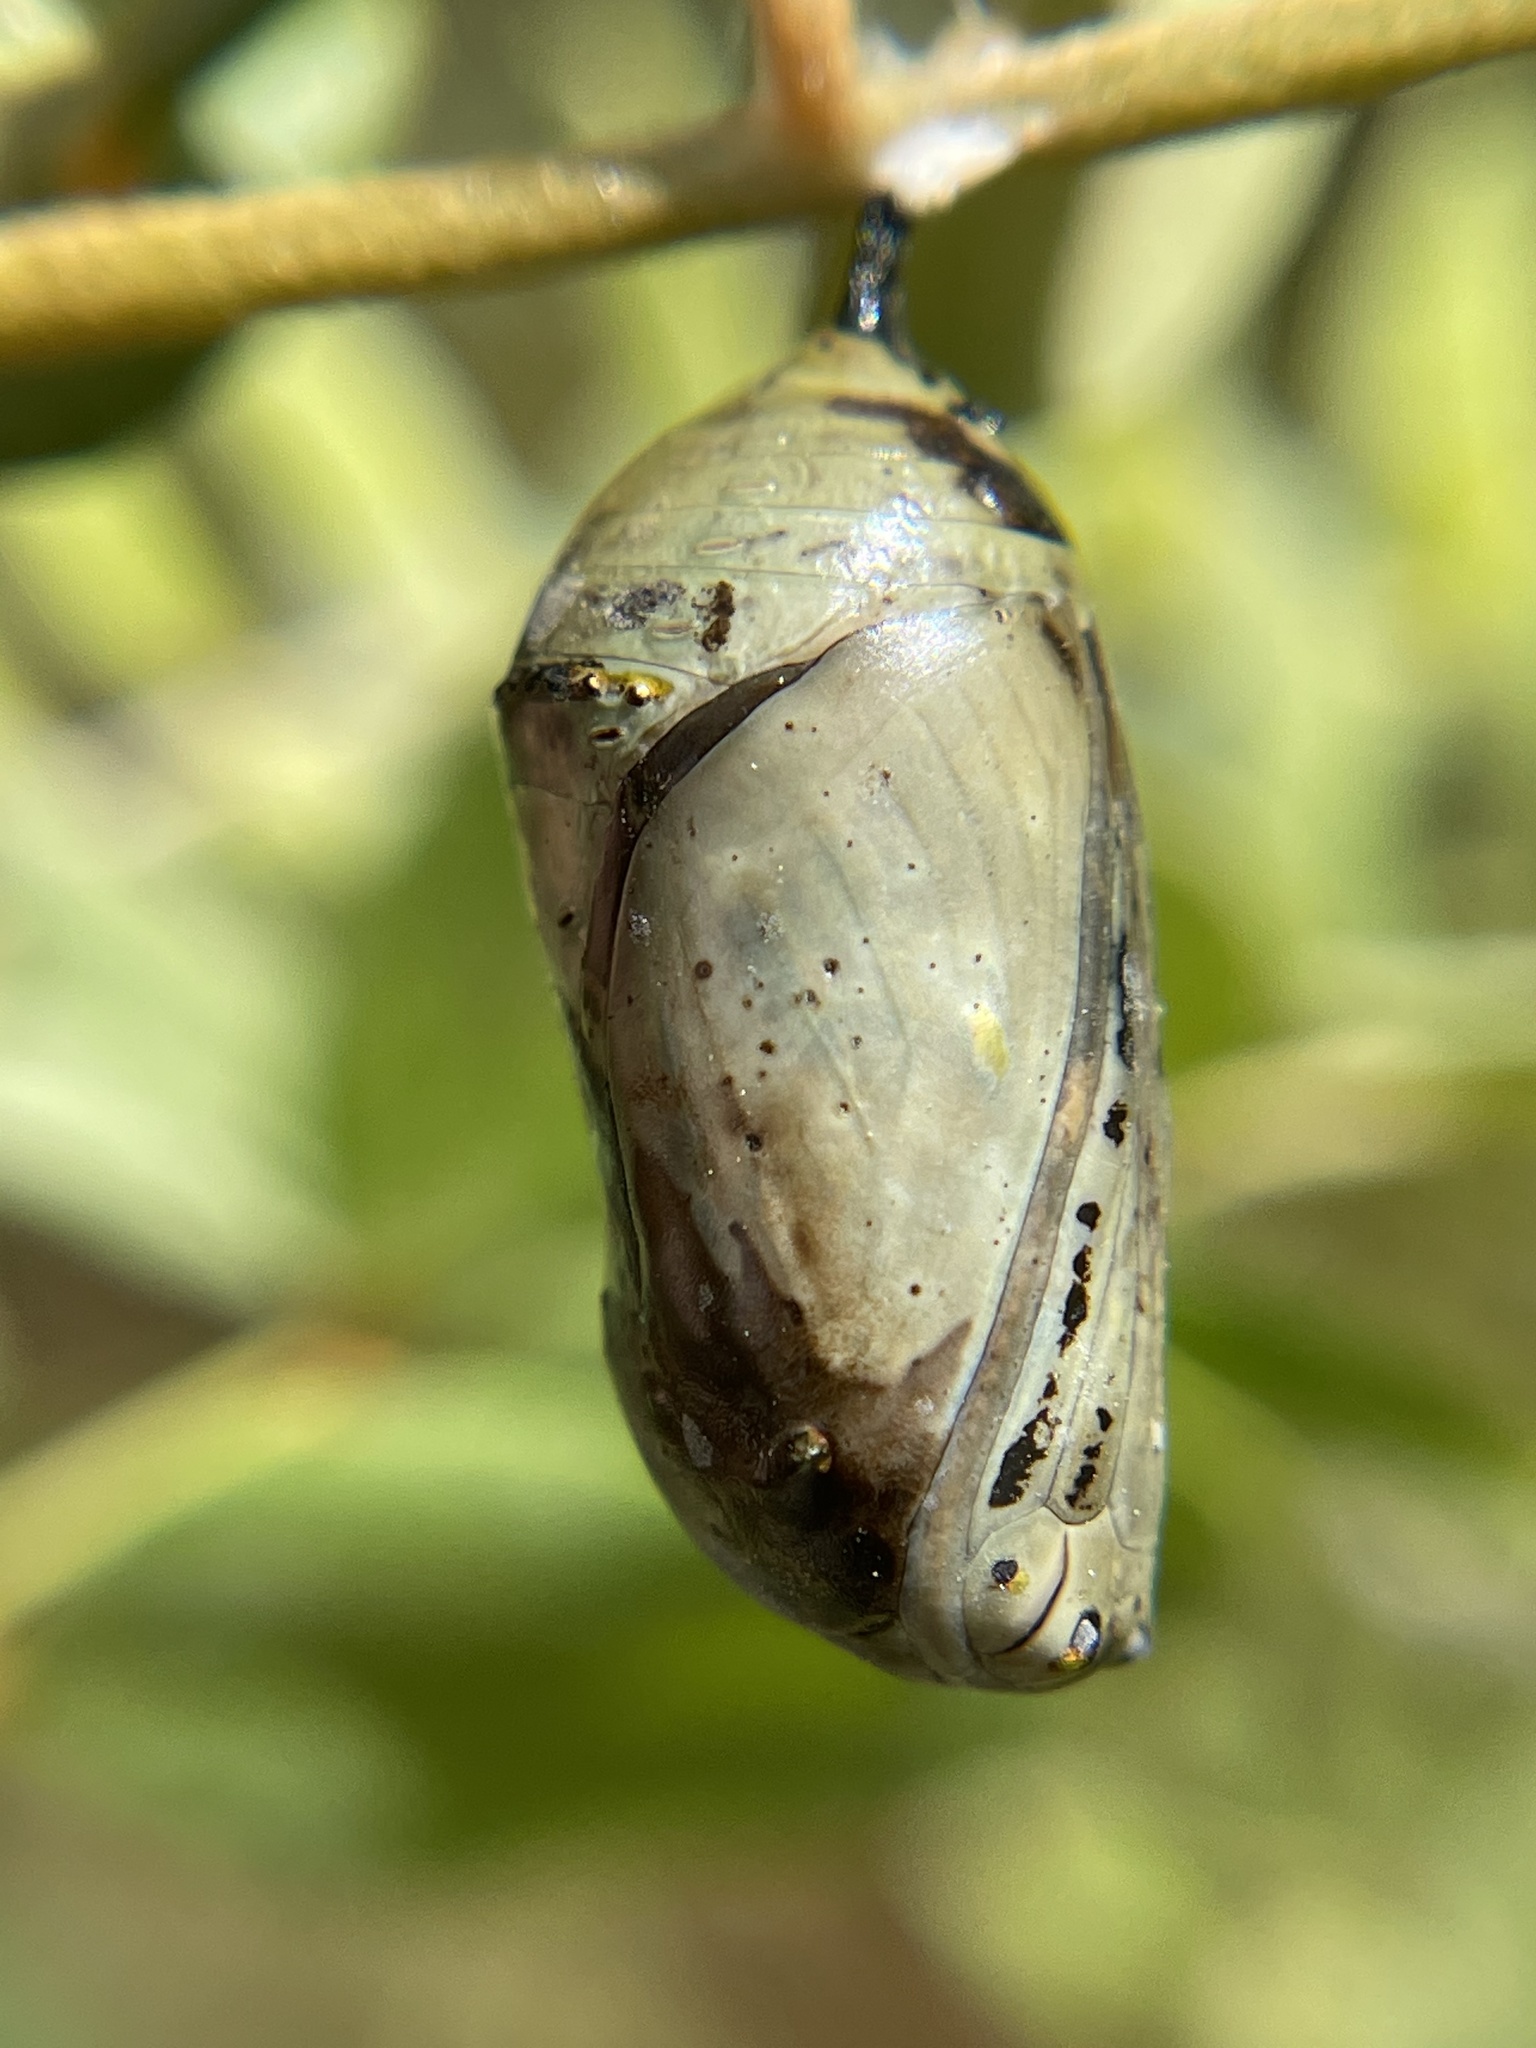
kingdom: Animalia
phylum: Arthropoda
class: Insecta
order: Lepidoptera
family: Nymphalidae
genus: Danaus
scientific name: Danaus plexippus
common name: Monarch
